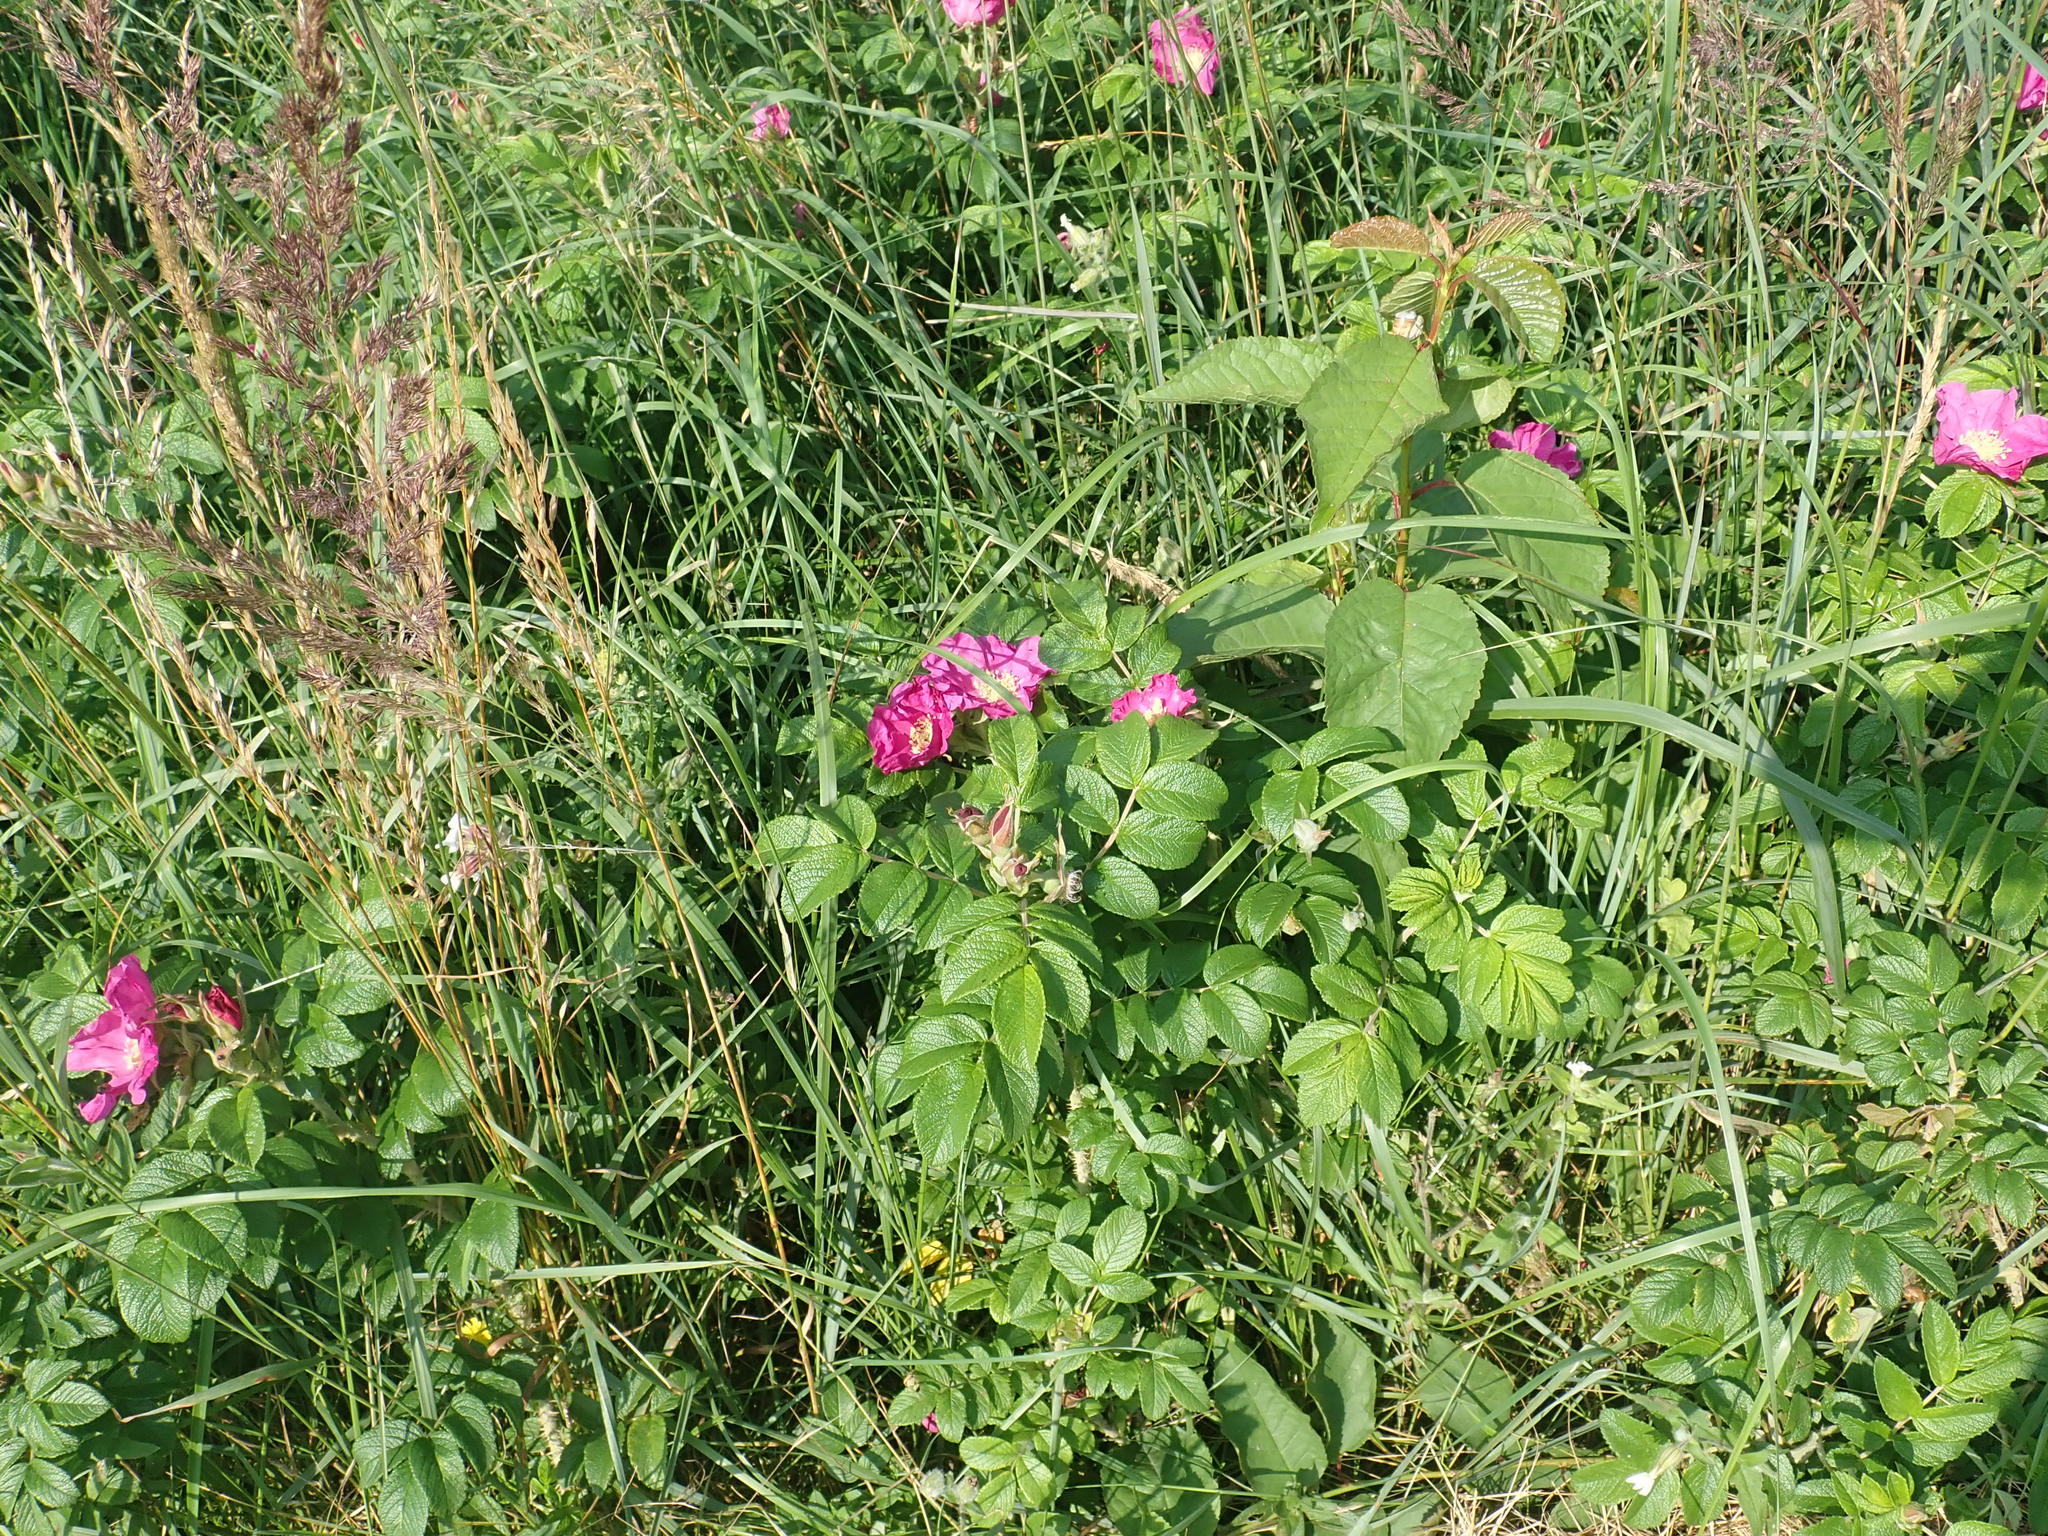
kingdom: Plantae
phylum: Tracheophyta
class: Magnoliopsida
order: Rosales
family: Rosaceae
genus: Rosa
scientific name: Rosa rugosa
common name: Japanese rose
